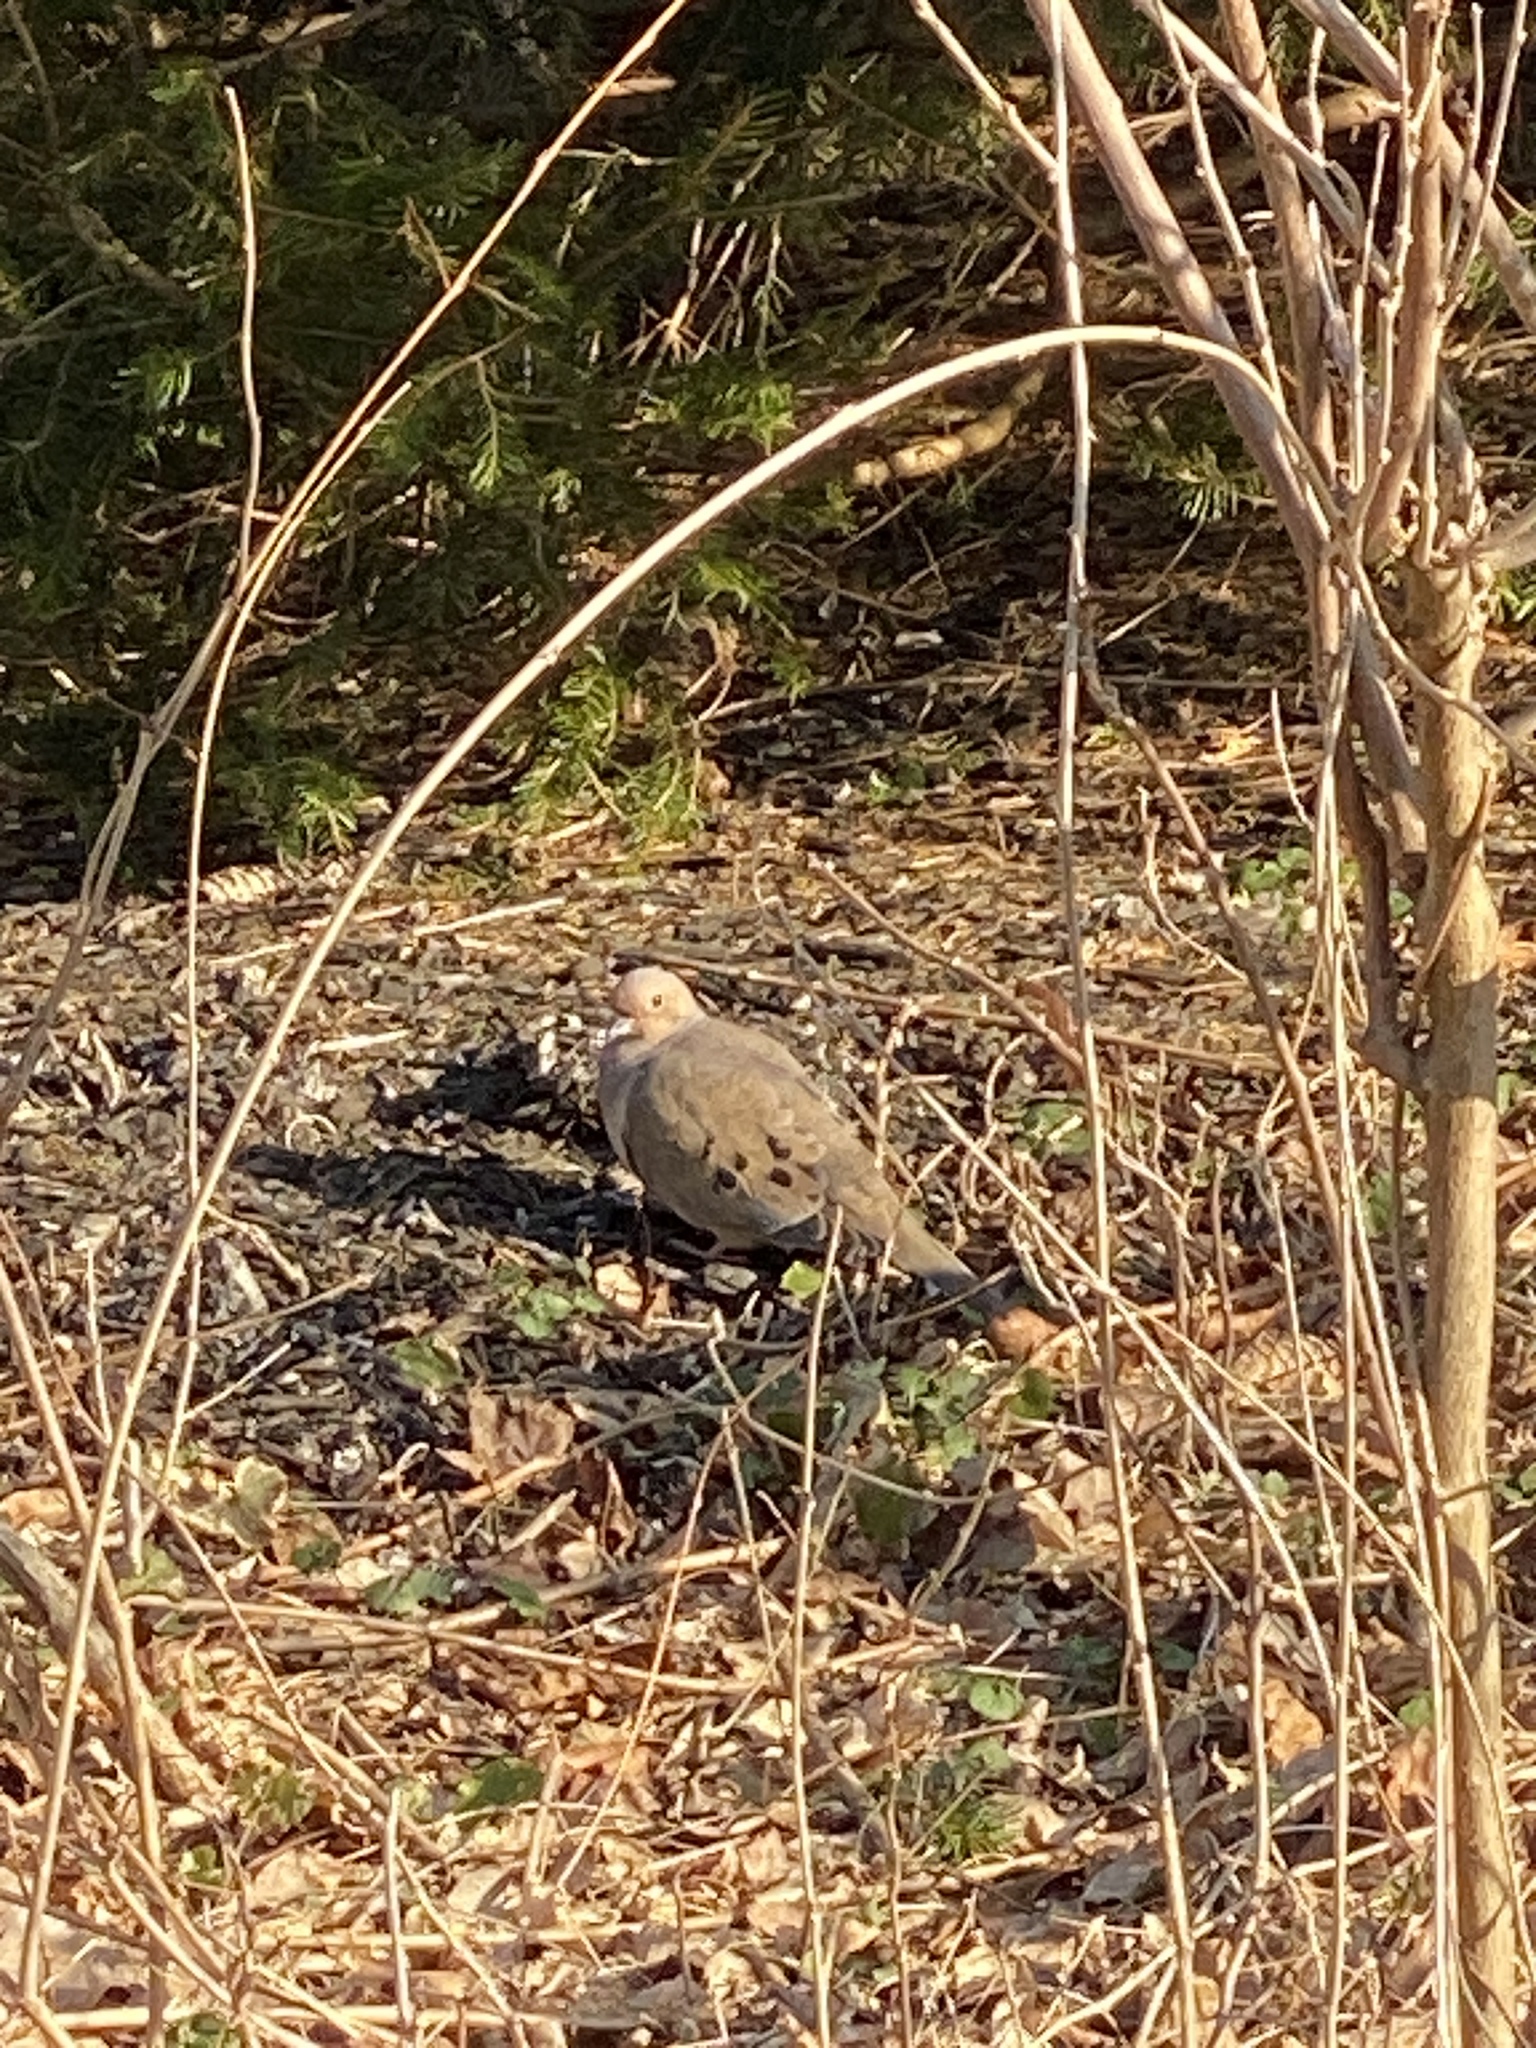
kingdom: Animalia
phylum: Chordata
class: Aves
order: Columbiformes
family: Columbidae
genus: Zenaida
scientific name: Zenaida macroura
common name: Mourning dove
